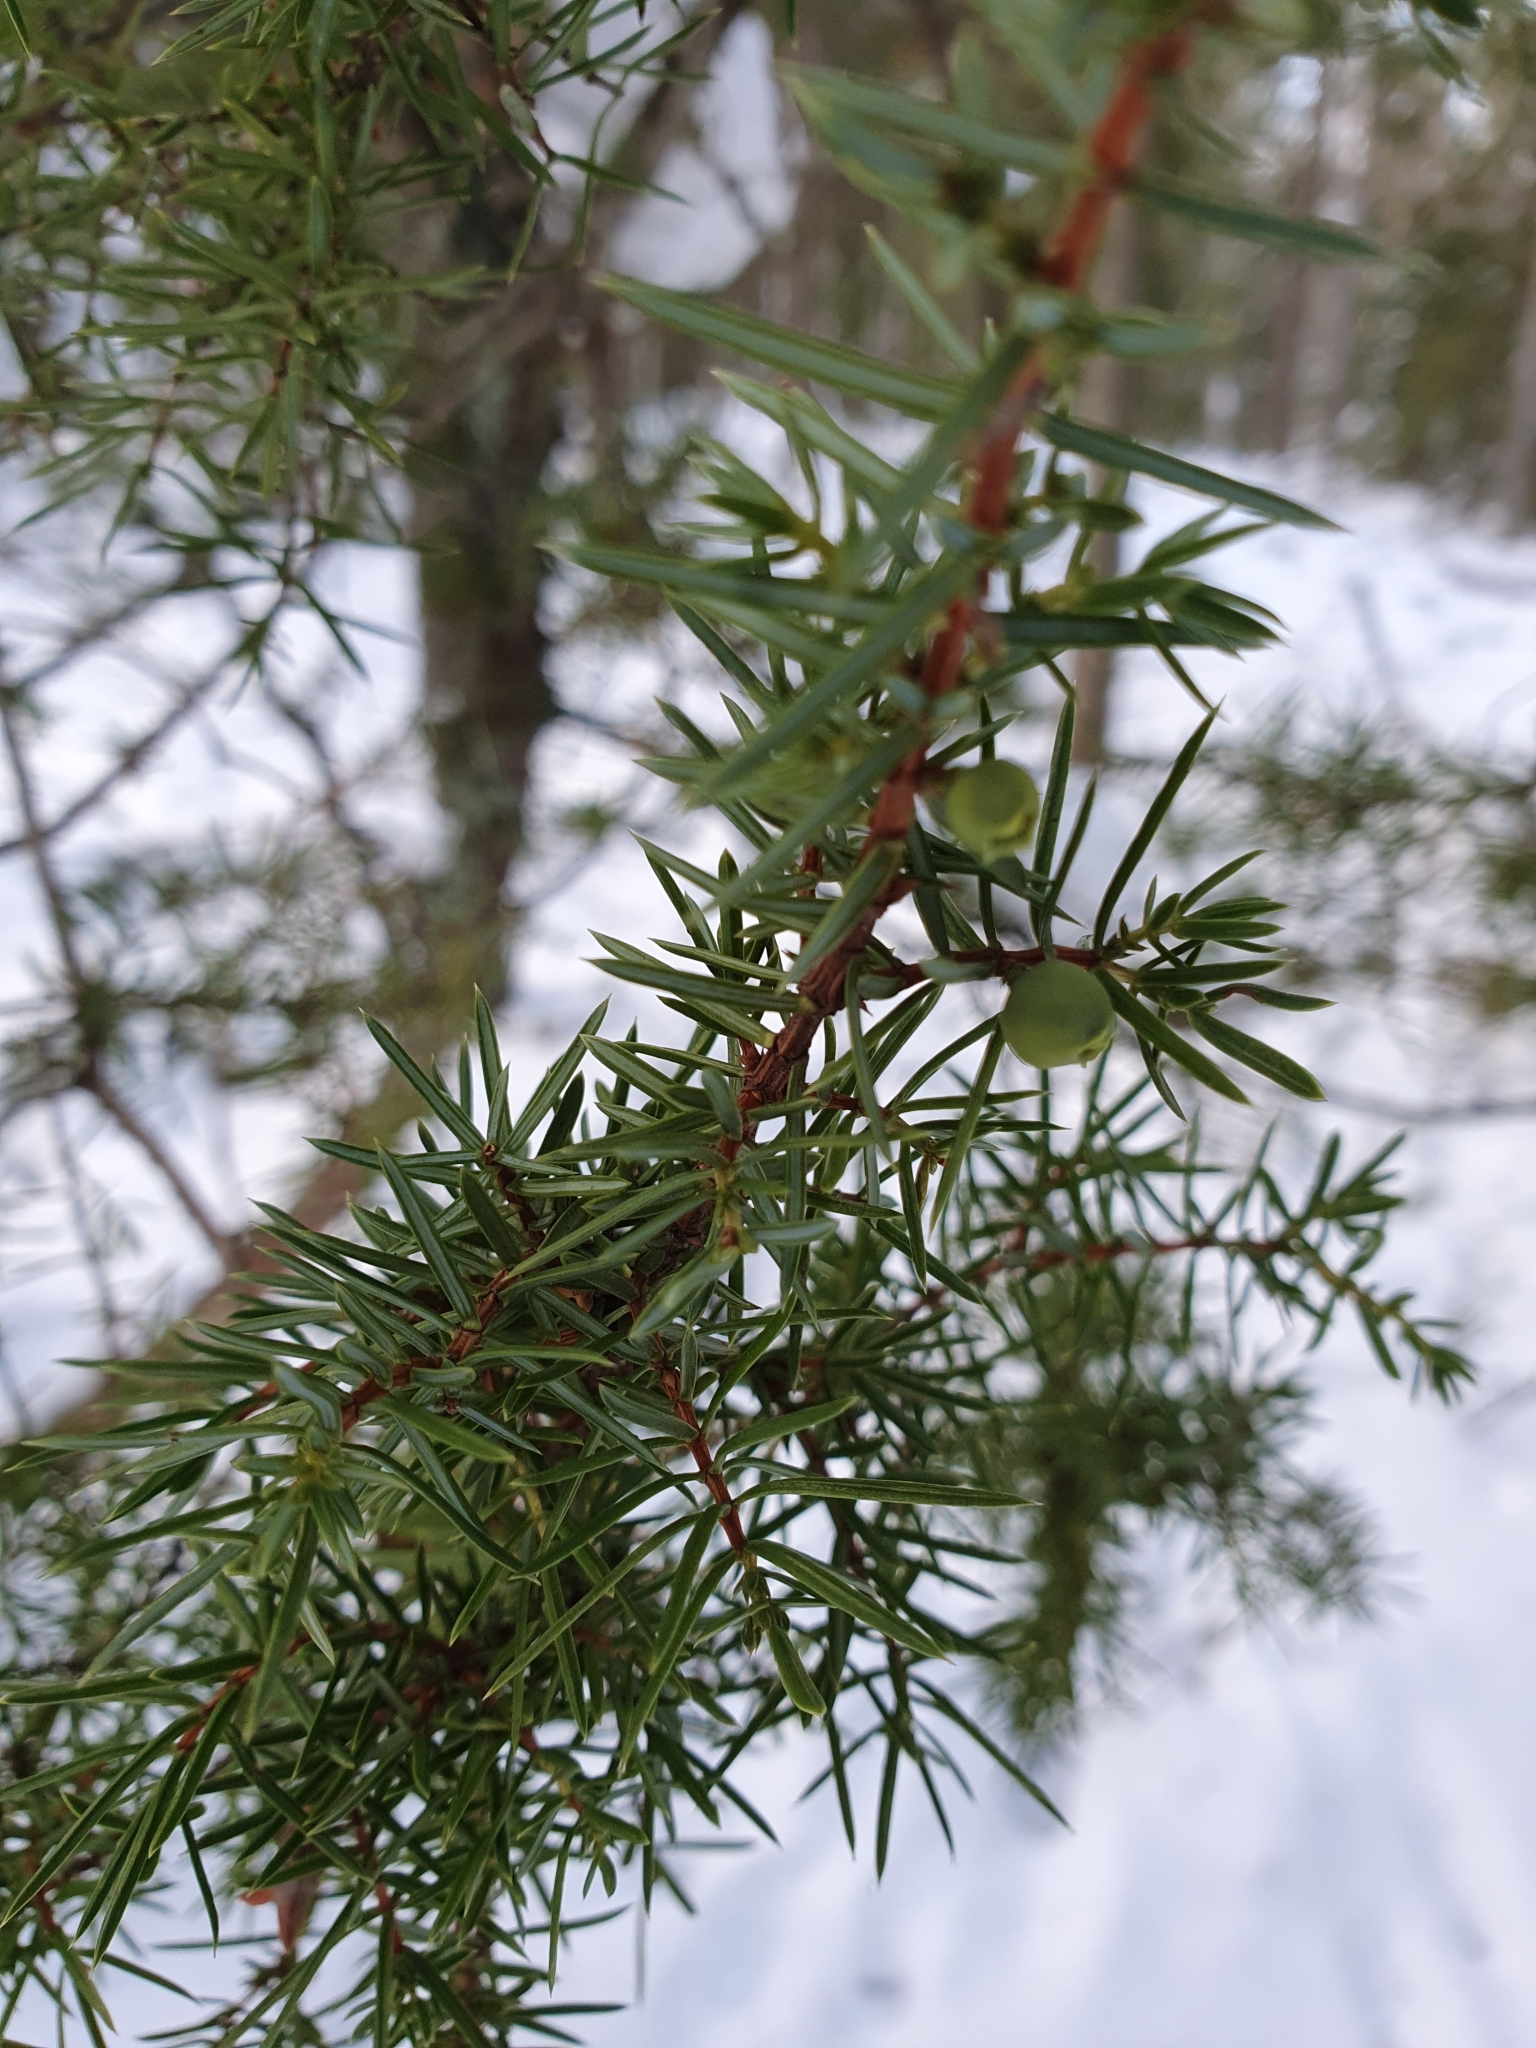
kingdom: Plantae
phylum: Tracheophyta
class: Pinopsida
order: Pinales
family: Cupressaceae
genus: Juniperus
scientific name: Juniperus communis
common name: Common juniper
